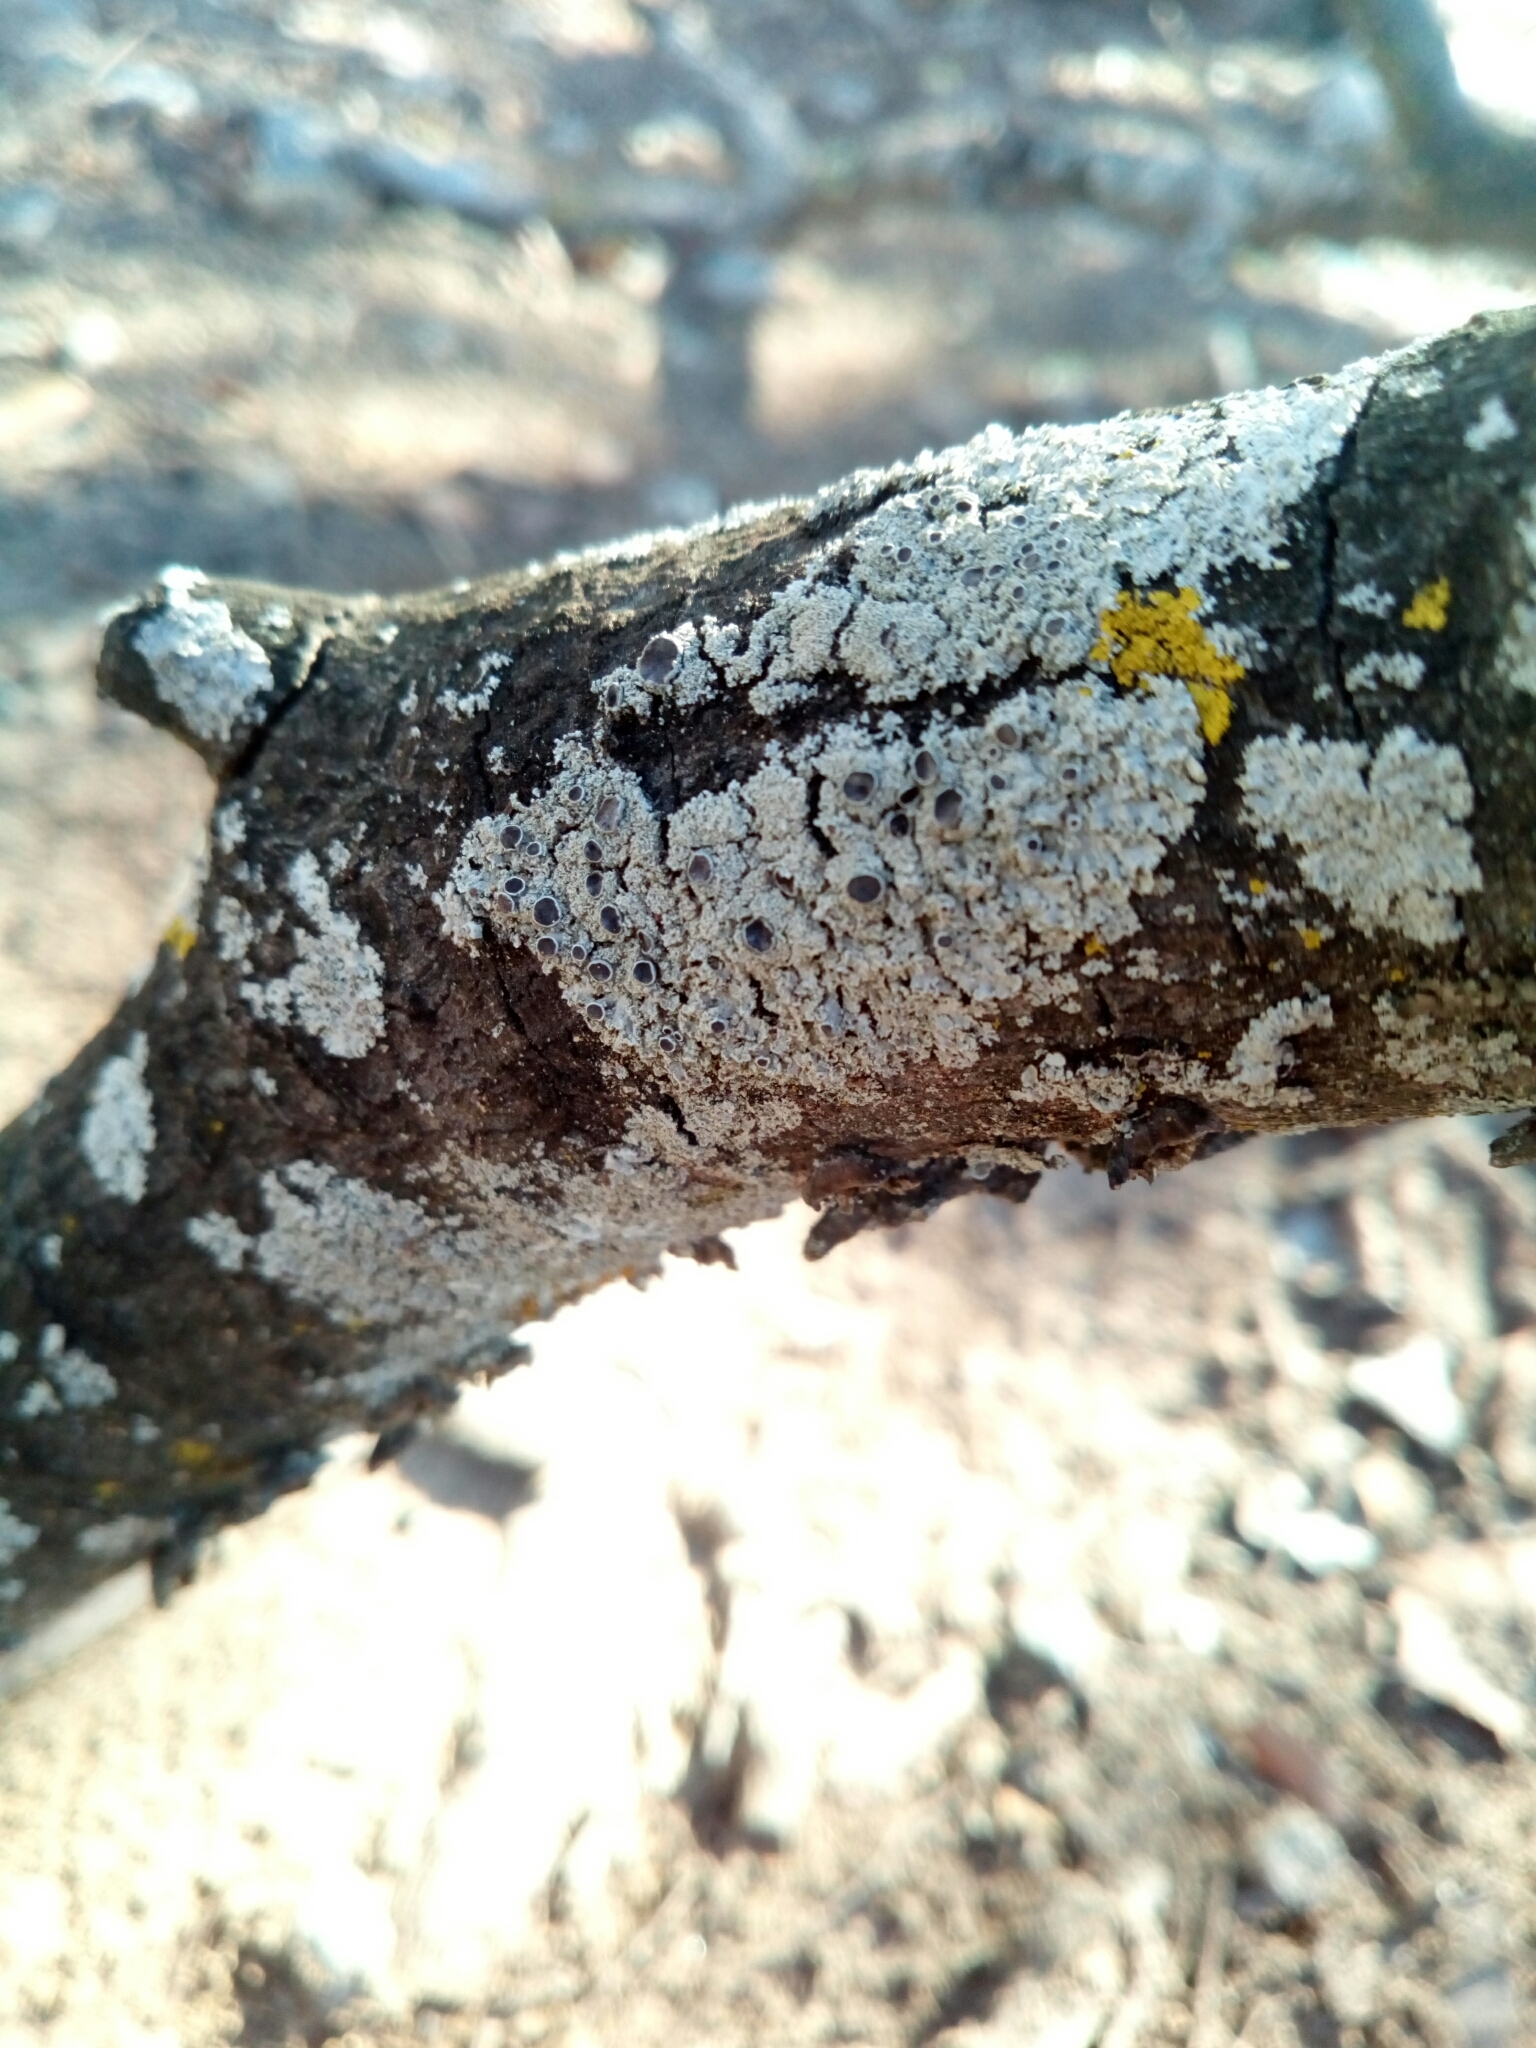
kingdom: Fungi
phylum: Ascomycota
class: Lecanoromycetes
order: Caliciales
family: Physciaceae
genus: Physcia
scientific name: Physcia stellaris
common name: Star rosette lichen
